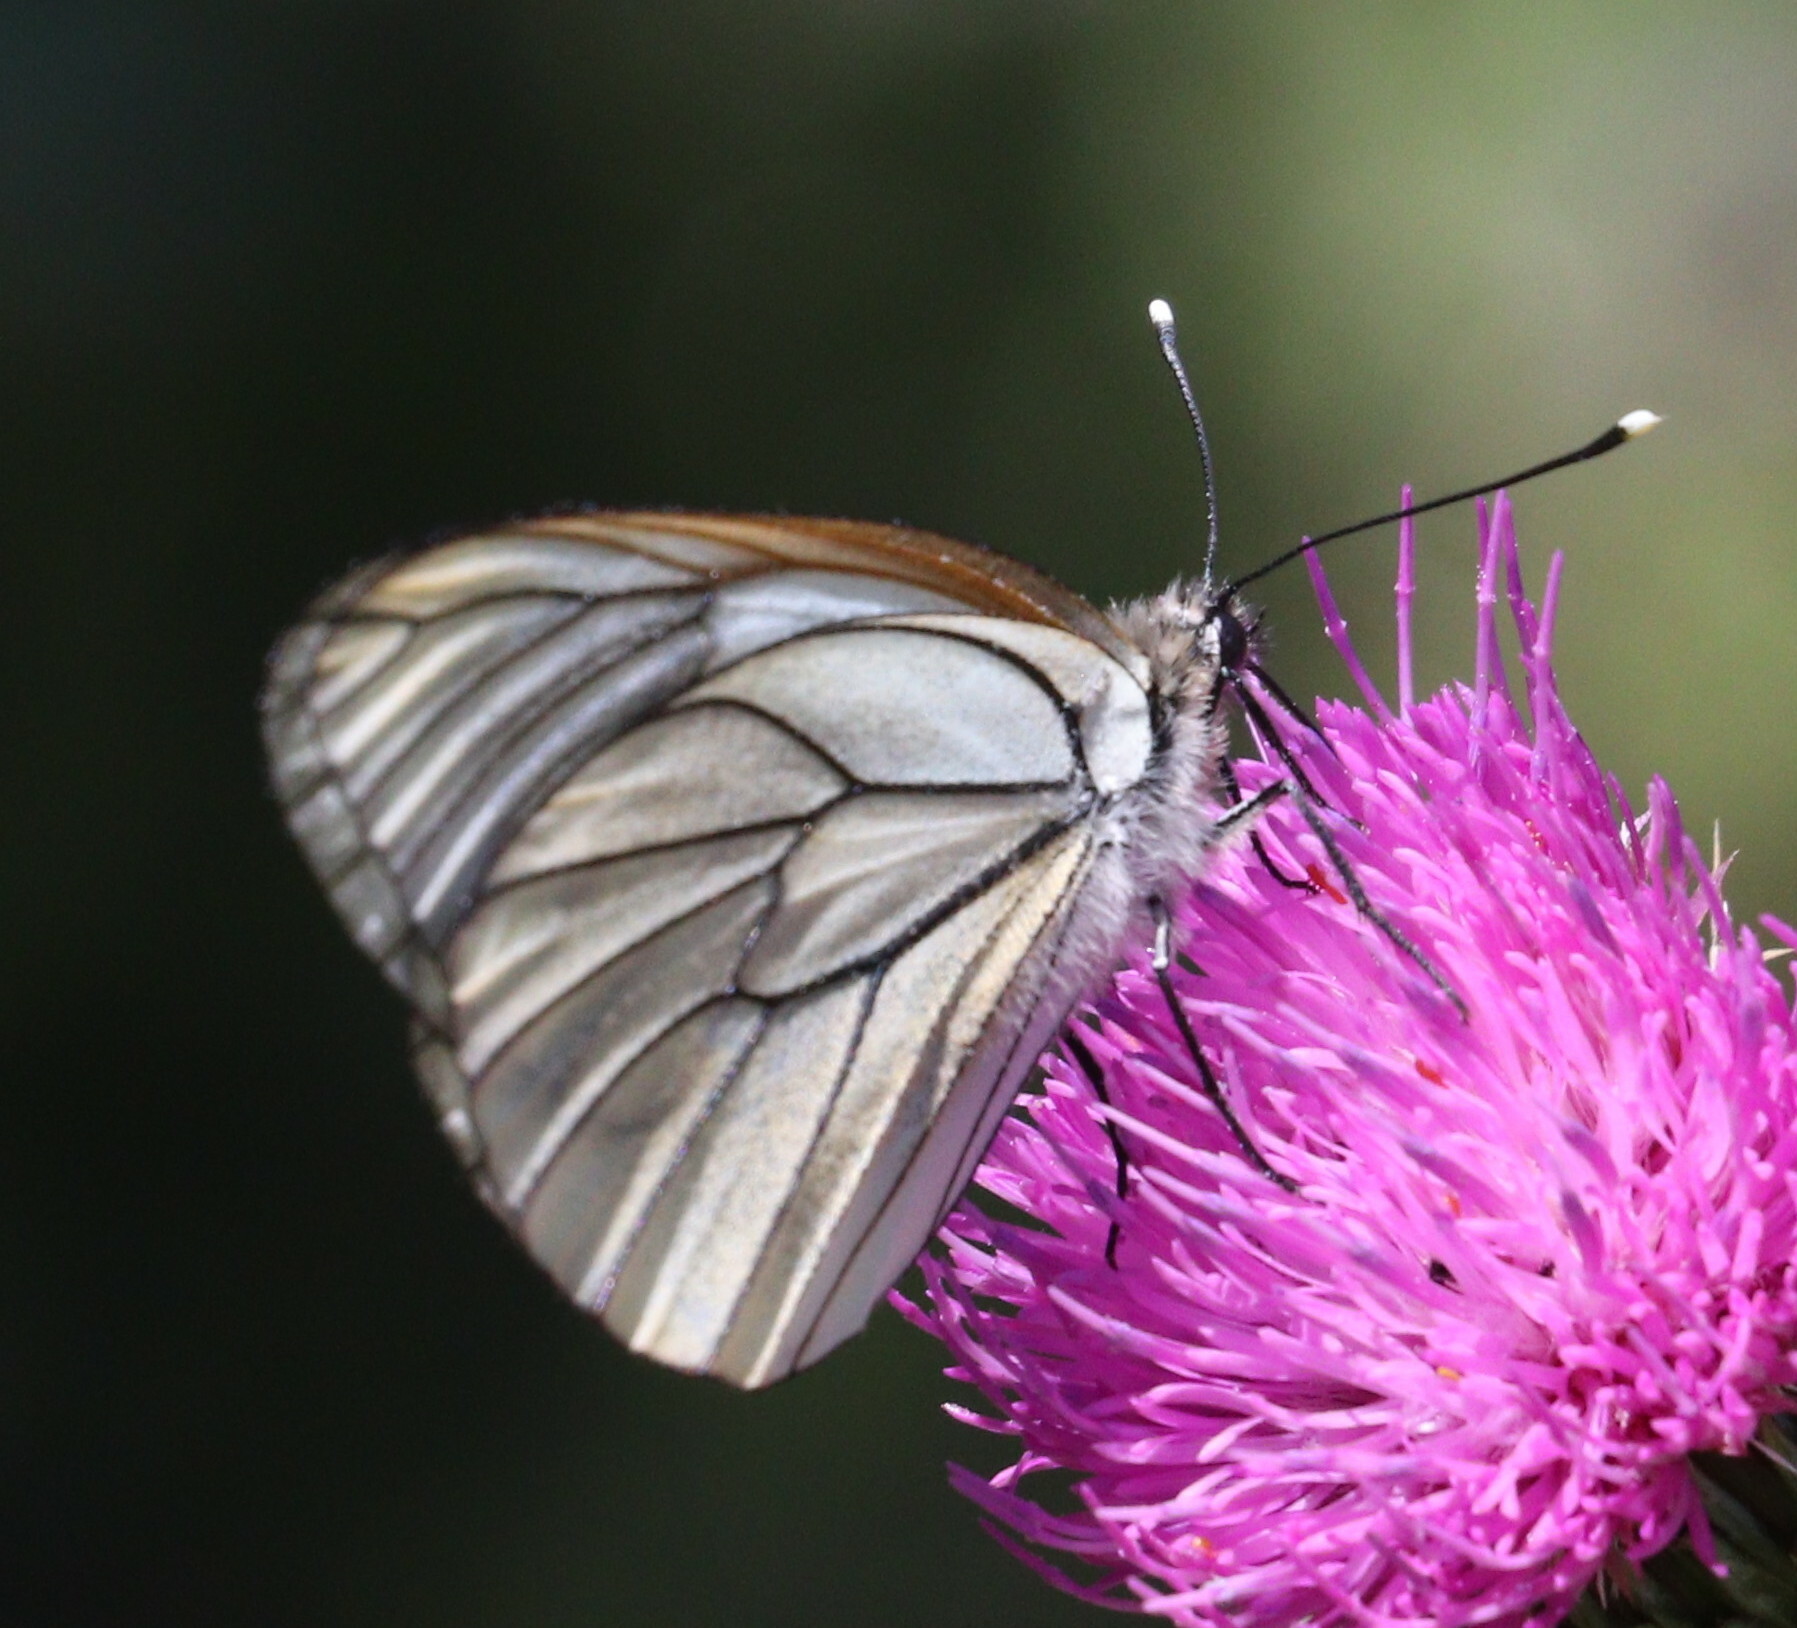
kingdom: Animalia
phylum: Arthropoda
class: Insecta
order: Lepidoptera
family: Pieridae
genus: Aporia
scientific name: Aporia crataegi
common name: Black-veined white
